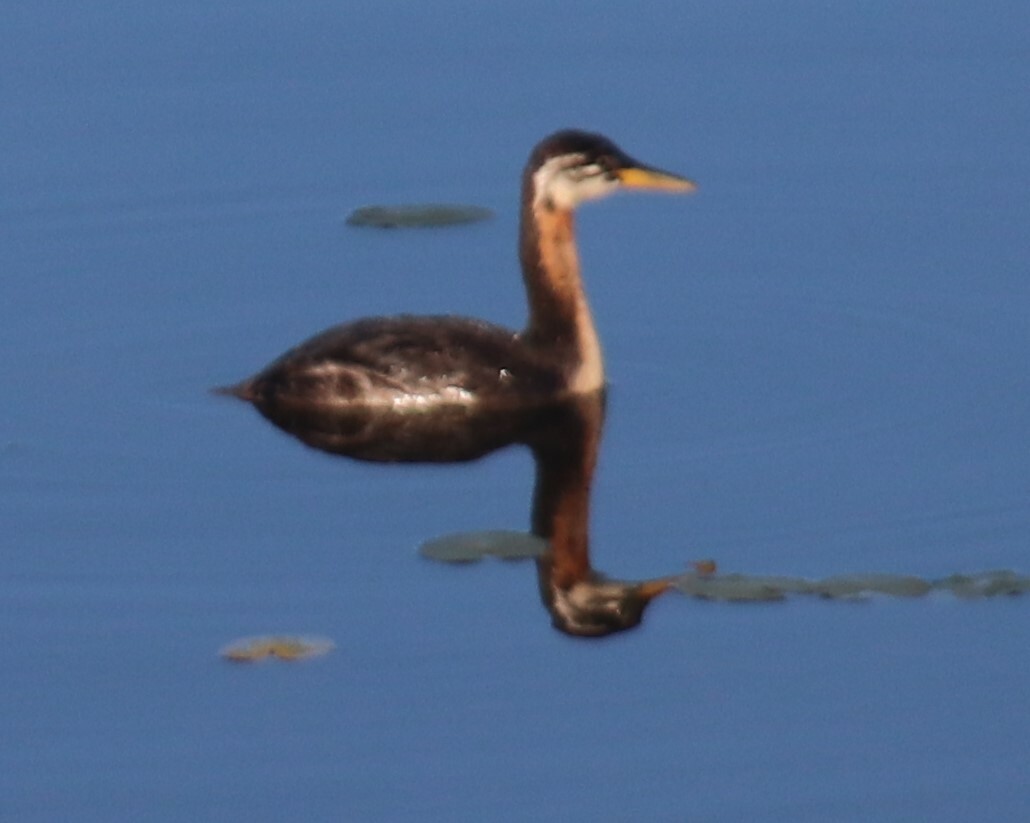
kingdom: Animalia
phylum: Chordata
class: Aves
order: Podicipediformes
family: Podicipedidae
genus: Podiceps
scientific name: Podiceps grisegena
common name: Red-necked grebe
